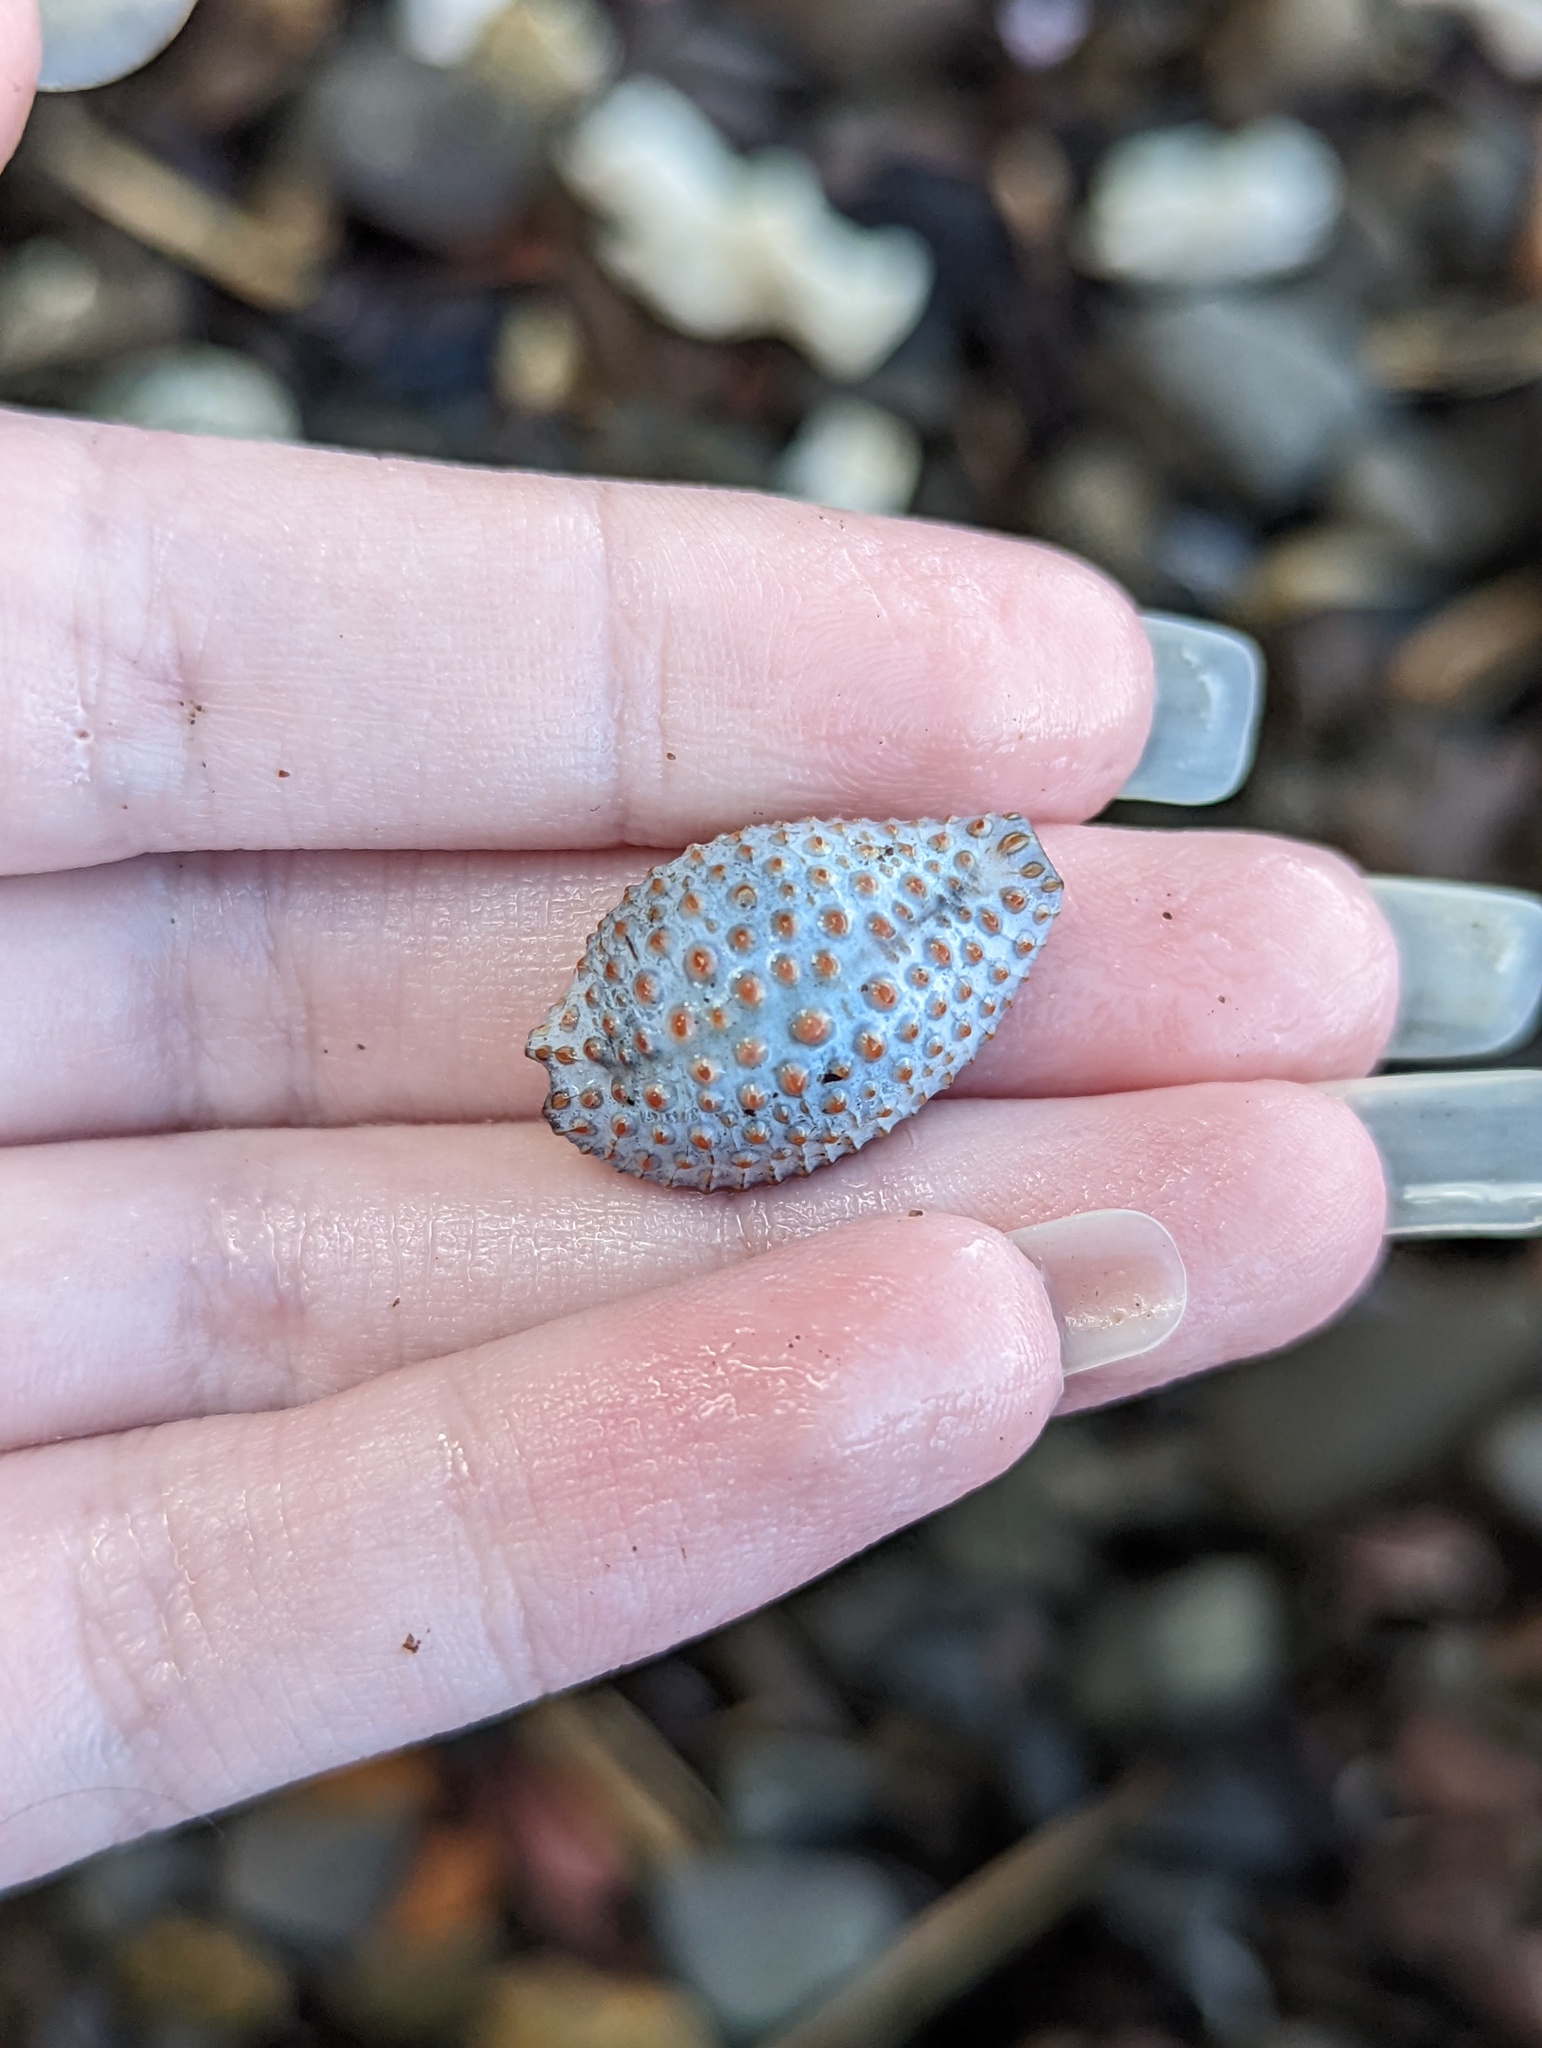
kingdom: Animalia
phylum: Mollusca
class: Gastropoda
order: Littorinimorpha
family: Pediculariidae
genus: Jenneria
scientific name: Jenneria pustulata
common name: Pustuled cowrie
